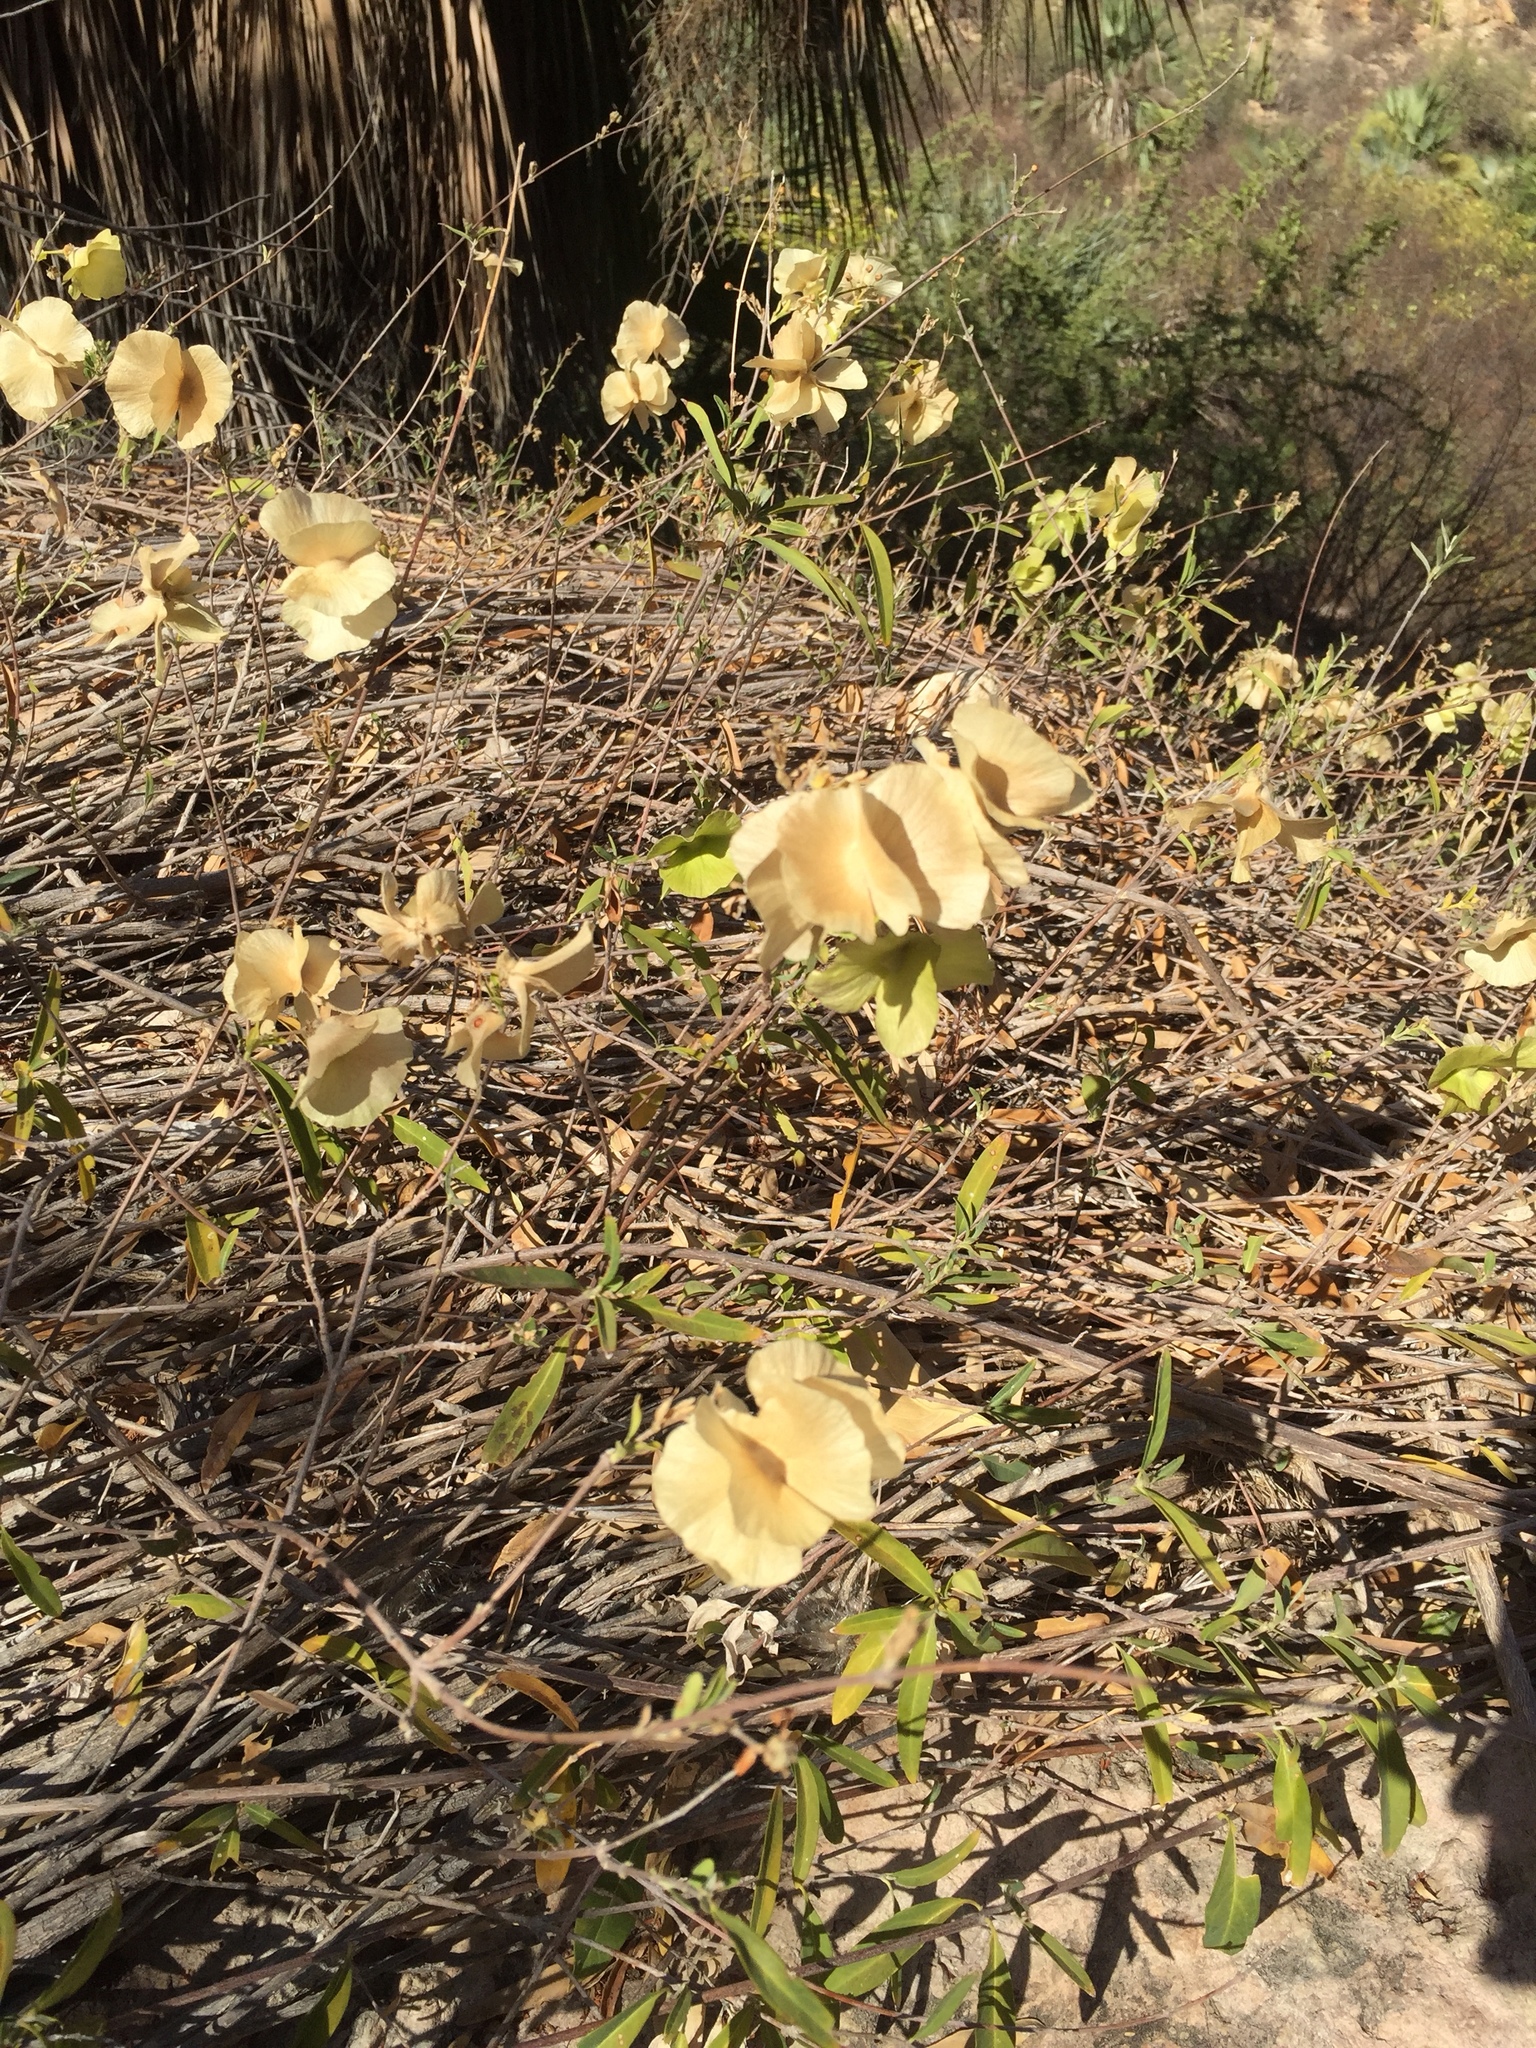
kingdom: Plantae
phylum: Tracheophyta
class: Magnoliopsida
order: Malpighiales
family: Malpighiaceae
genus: Callaeum
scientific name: Callaeum macropterum
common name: Mexican butterfly-vine
